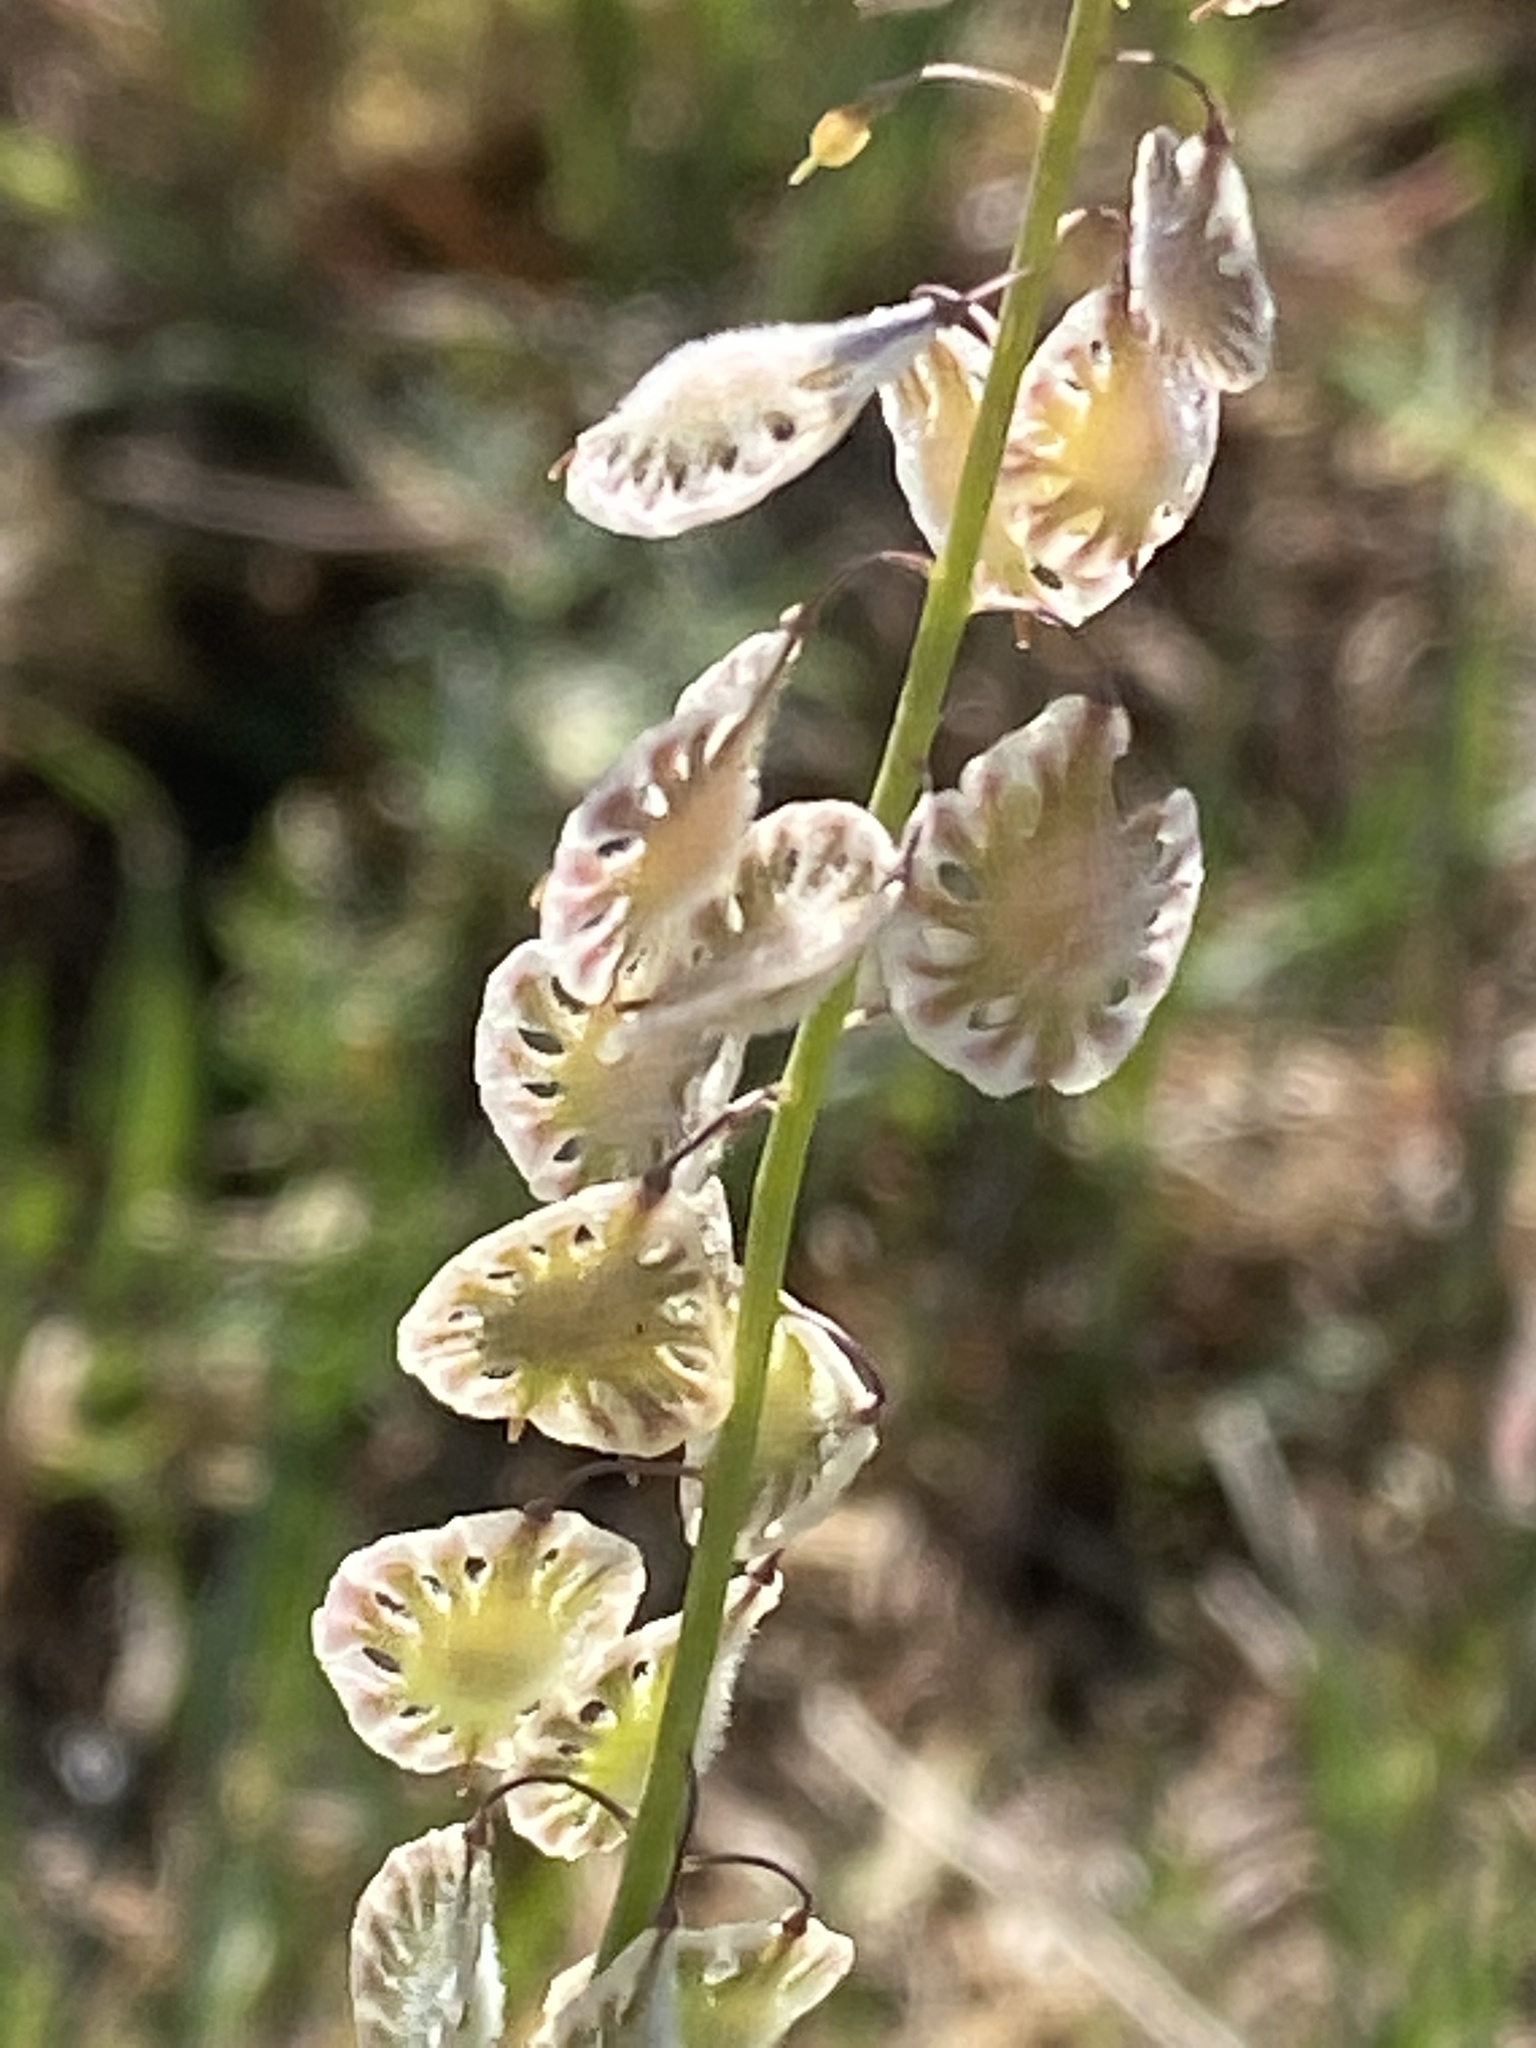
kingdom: Plantae
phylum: Tracheophyta
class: Magnoliopsida
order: Brassicales
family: Brassicaceae
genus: Thysanocarpus
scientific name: Thysanocarpus curvipes
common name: Sand fringepod
